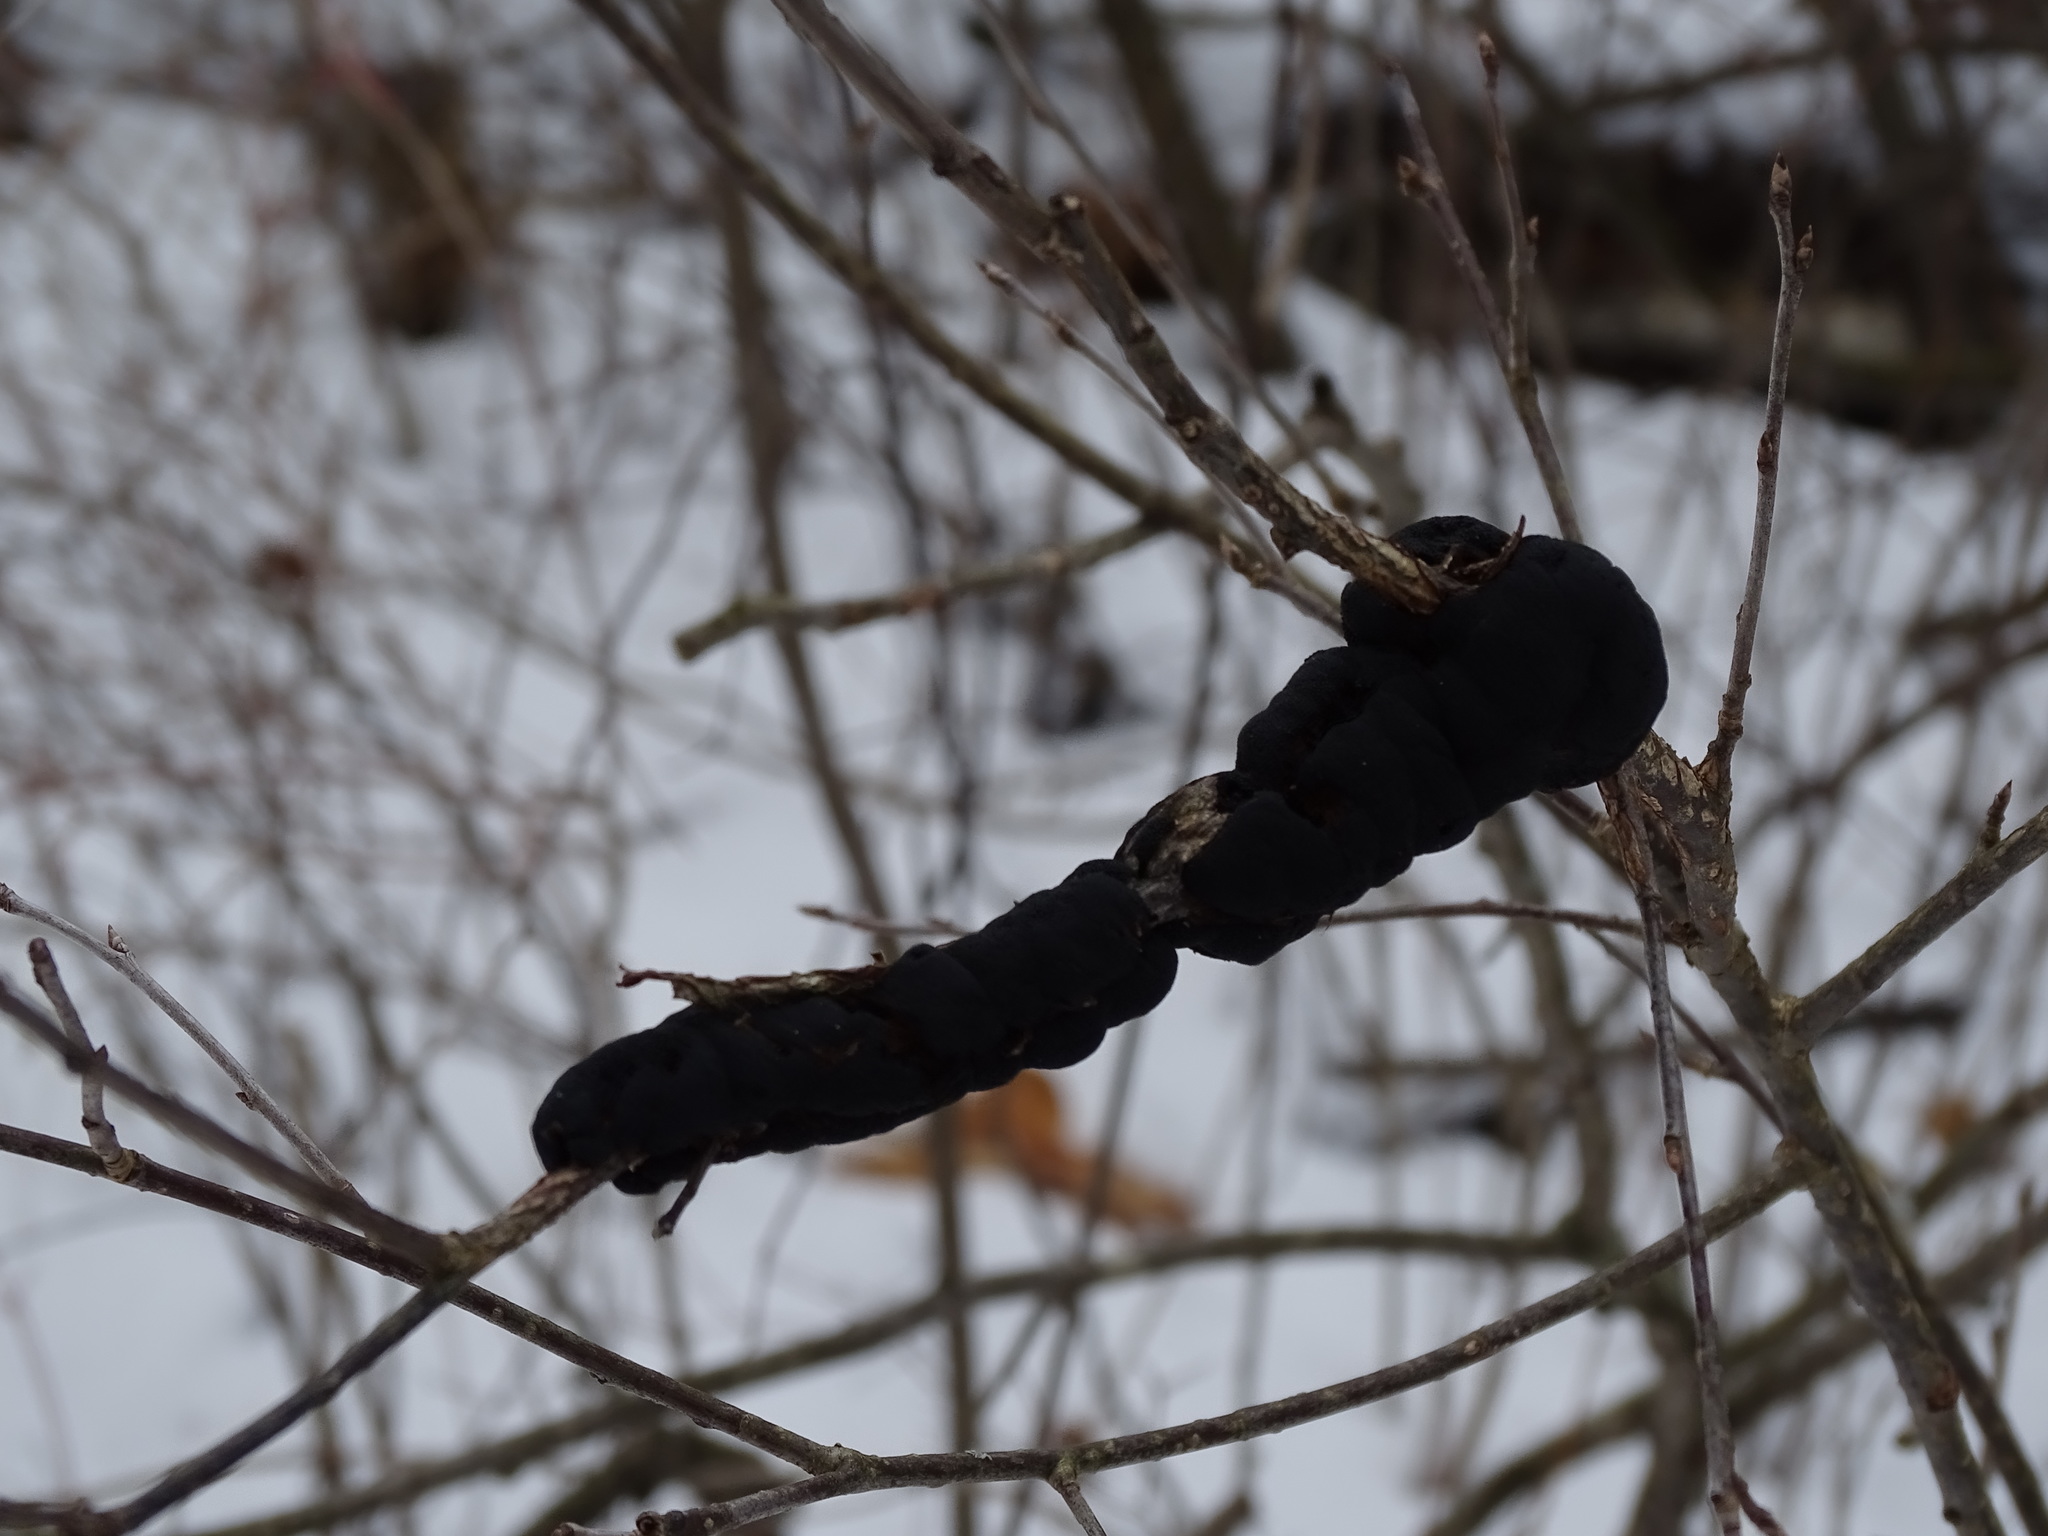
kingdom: Fungi
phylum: Ascomycota
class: Dothideomycetes
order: Venturiales
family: Venturiaceae
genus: Apiosporina
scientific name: Apiosporina morbosa
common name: Black knot
